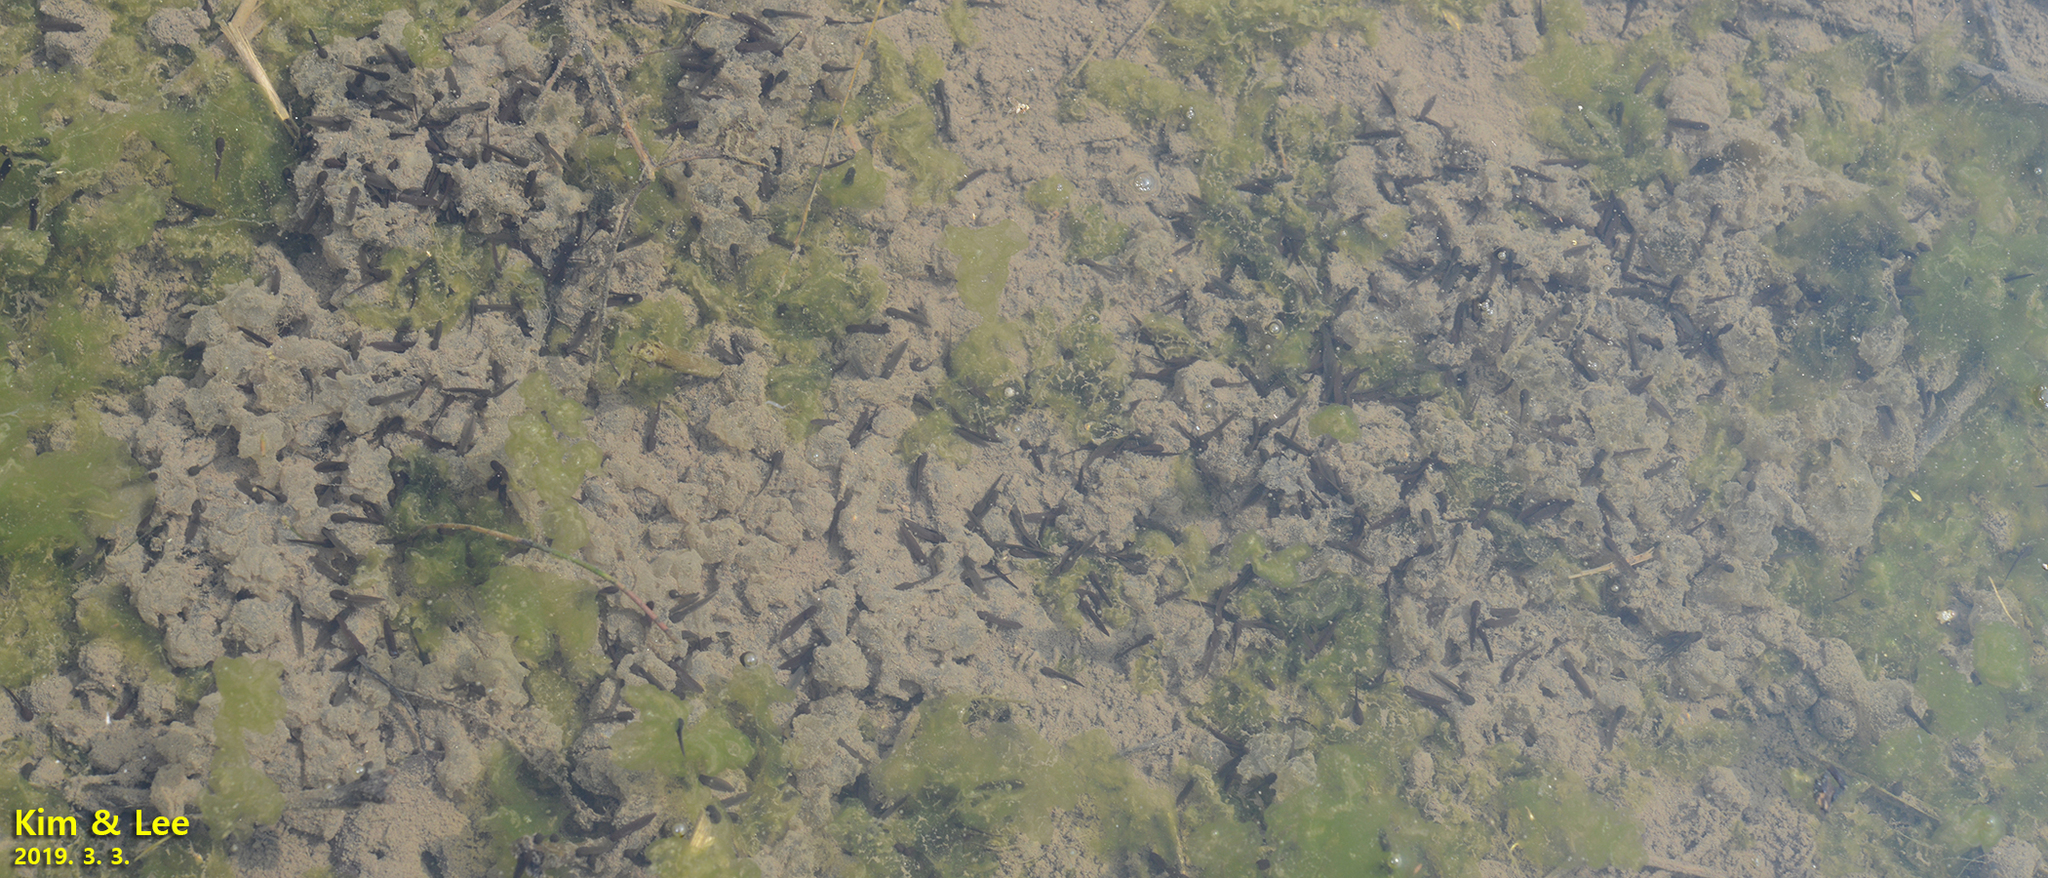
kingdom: Animalia
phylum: Chordata
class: Amphibia
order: Anura
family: Ranidae
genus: Rana
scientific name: Rana uenoi
